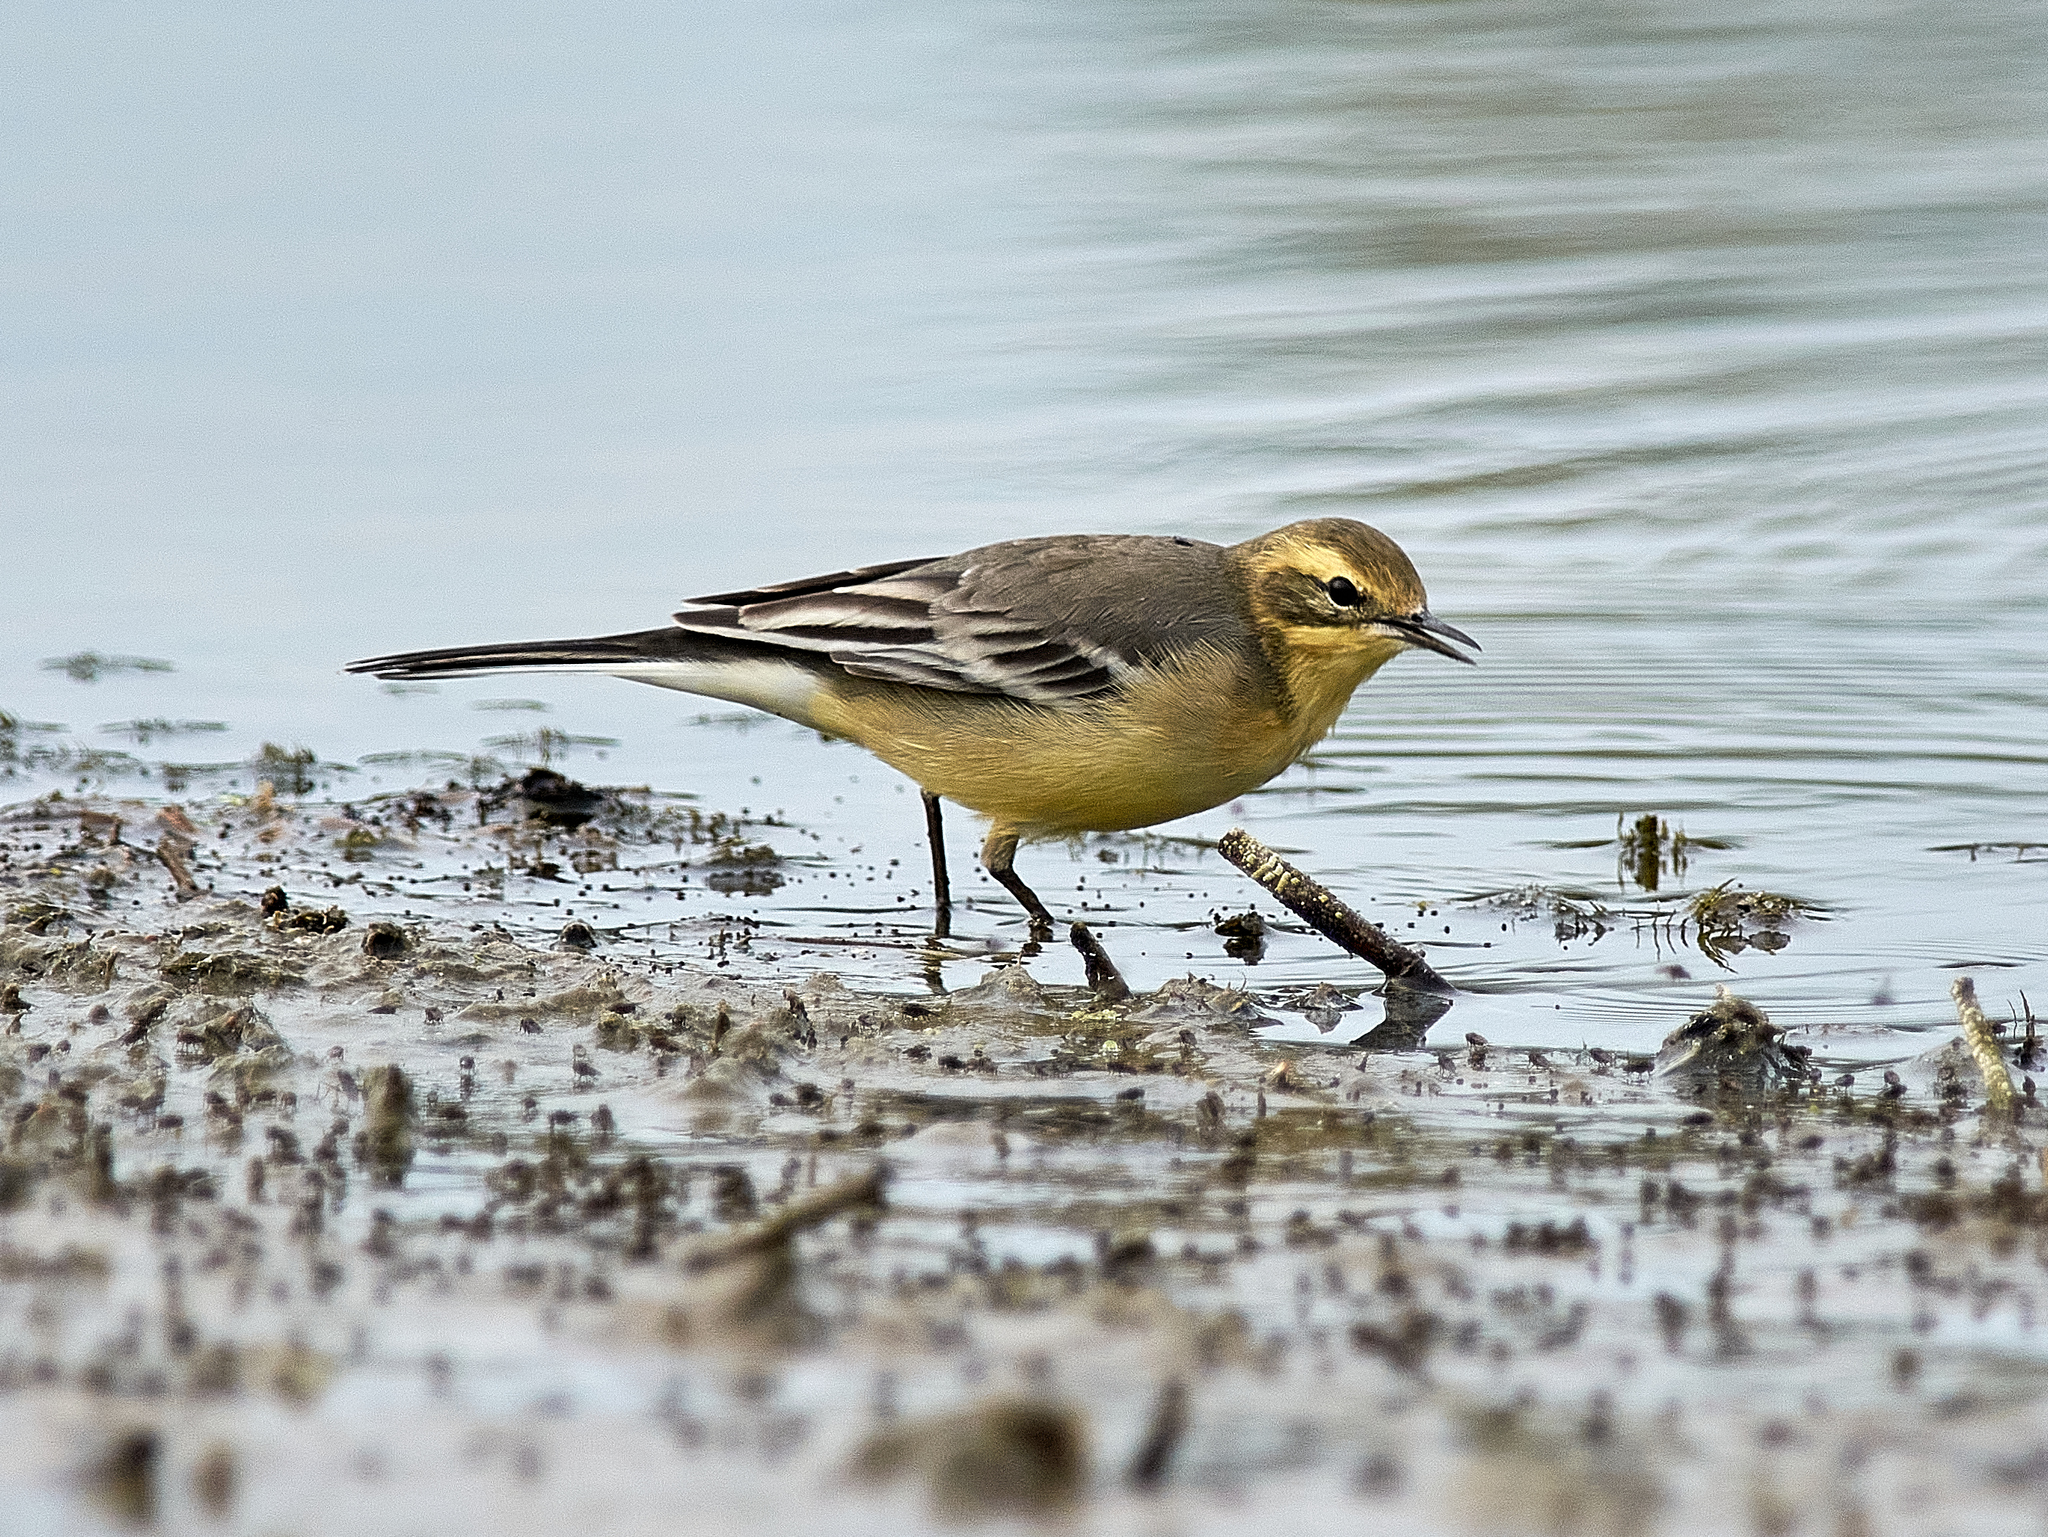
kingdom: Animalia
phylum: Chordata
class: Aves
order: Passeriformes
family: Motacillidae
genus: Motacilla
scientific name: Motacilla citreola
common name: Citrine wagtail
